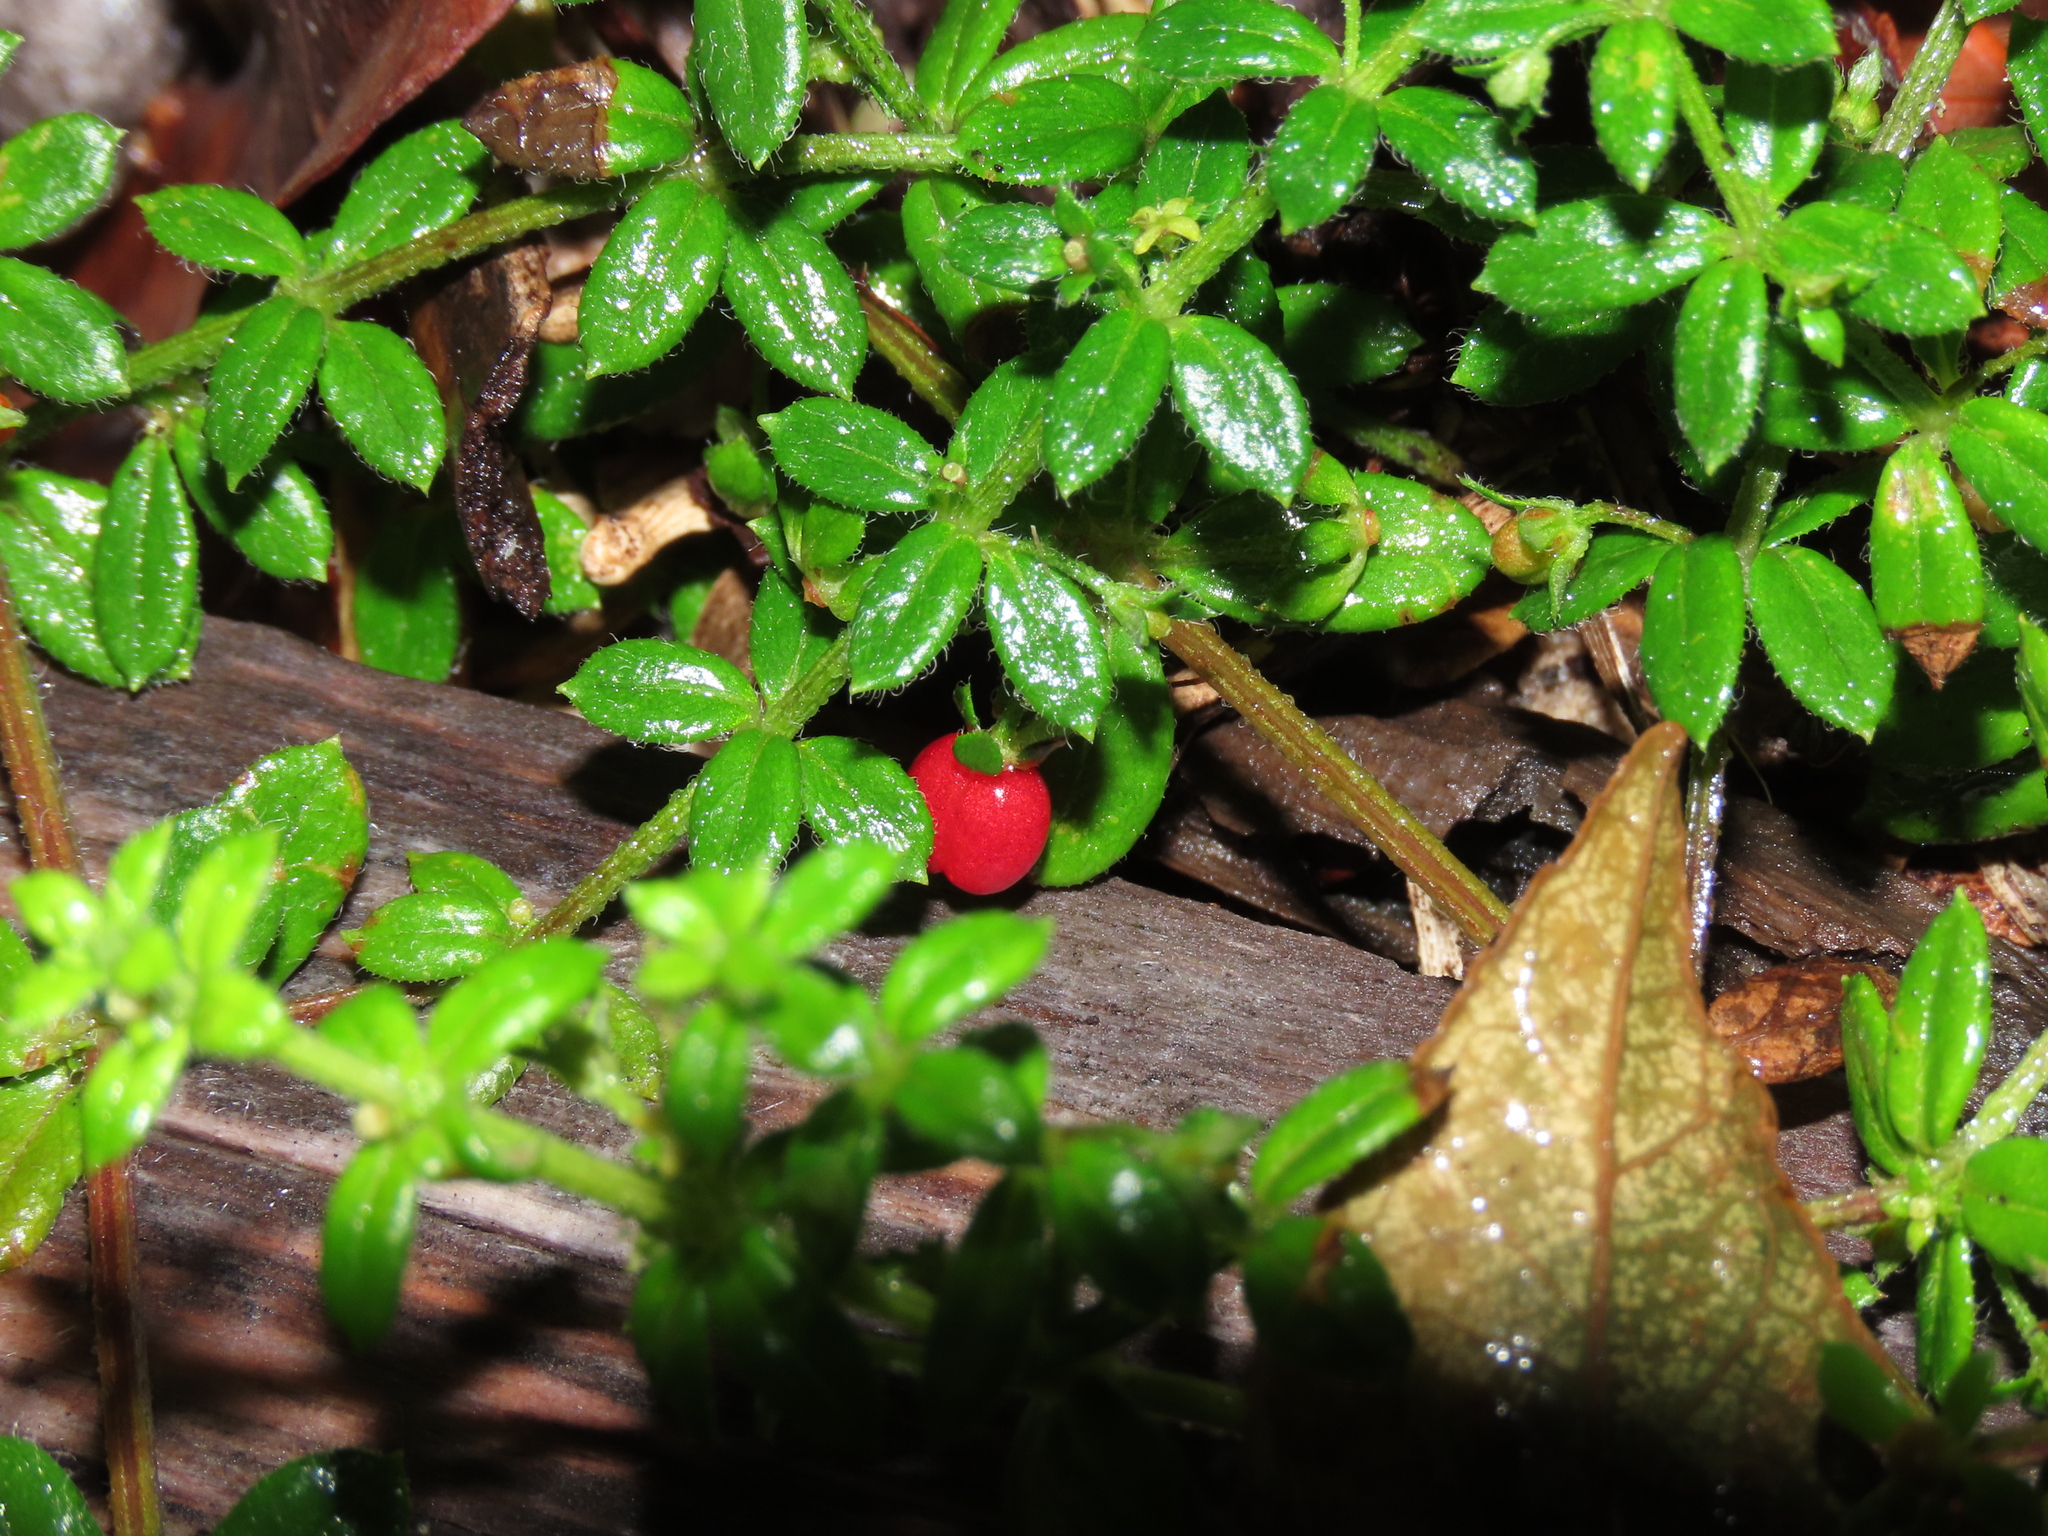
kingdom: Plantae
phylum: Tracheophyta
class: Magnoliopsida
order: Gentianales
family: Rubiaceae
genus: Galium
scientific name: Galium hypocarpium
